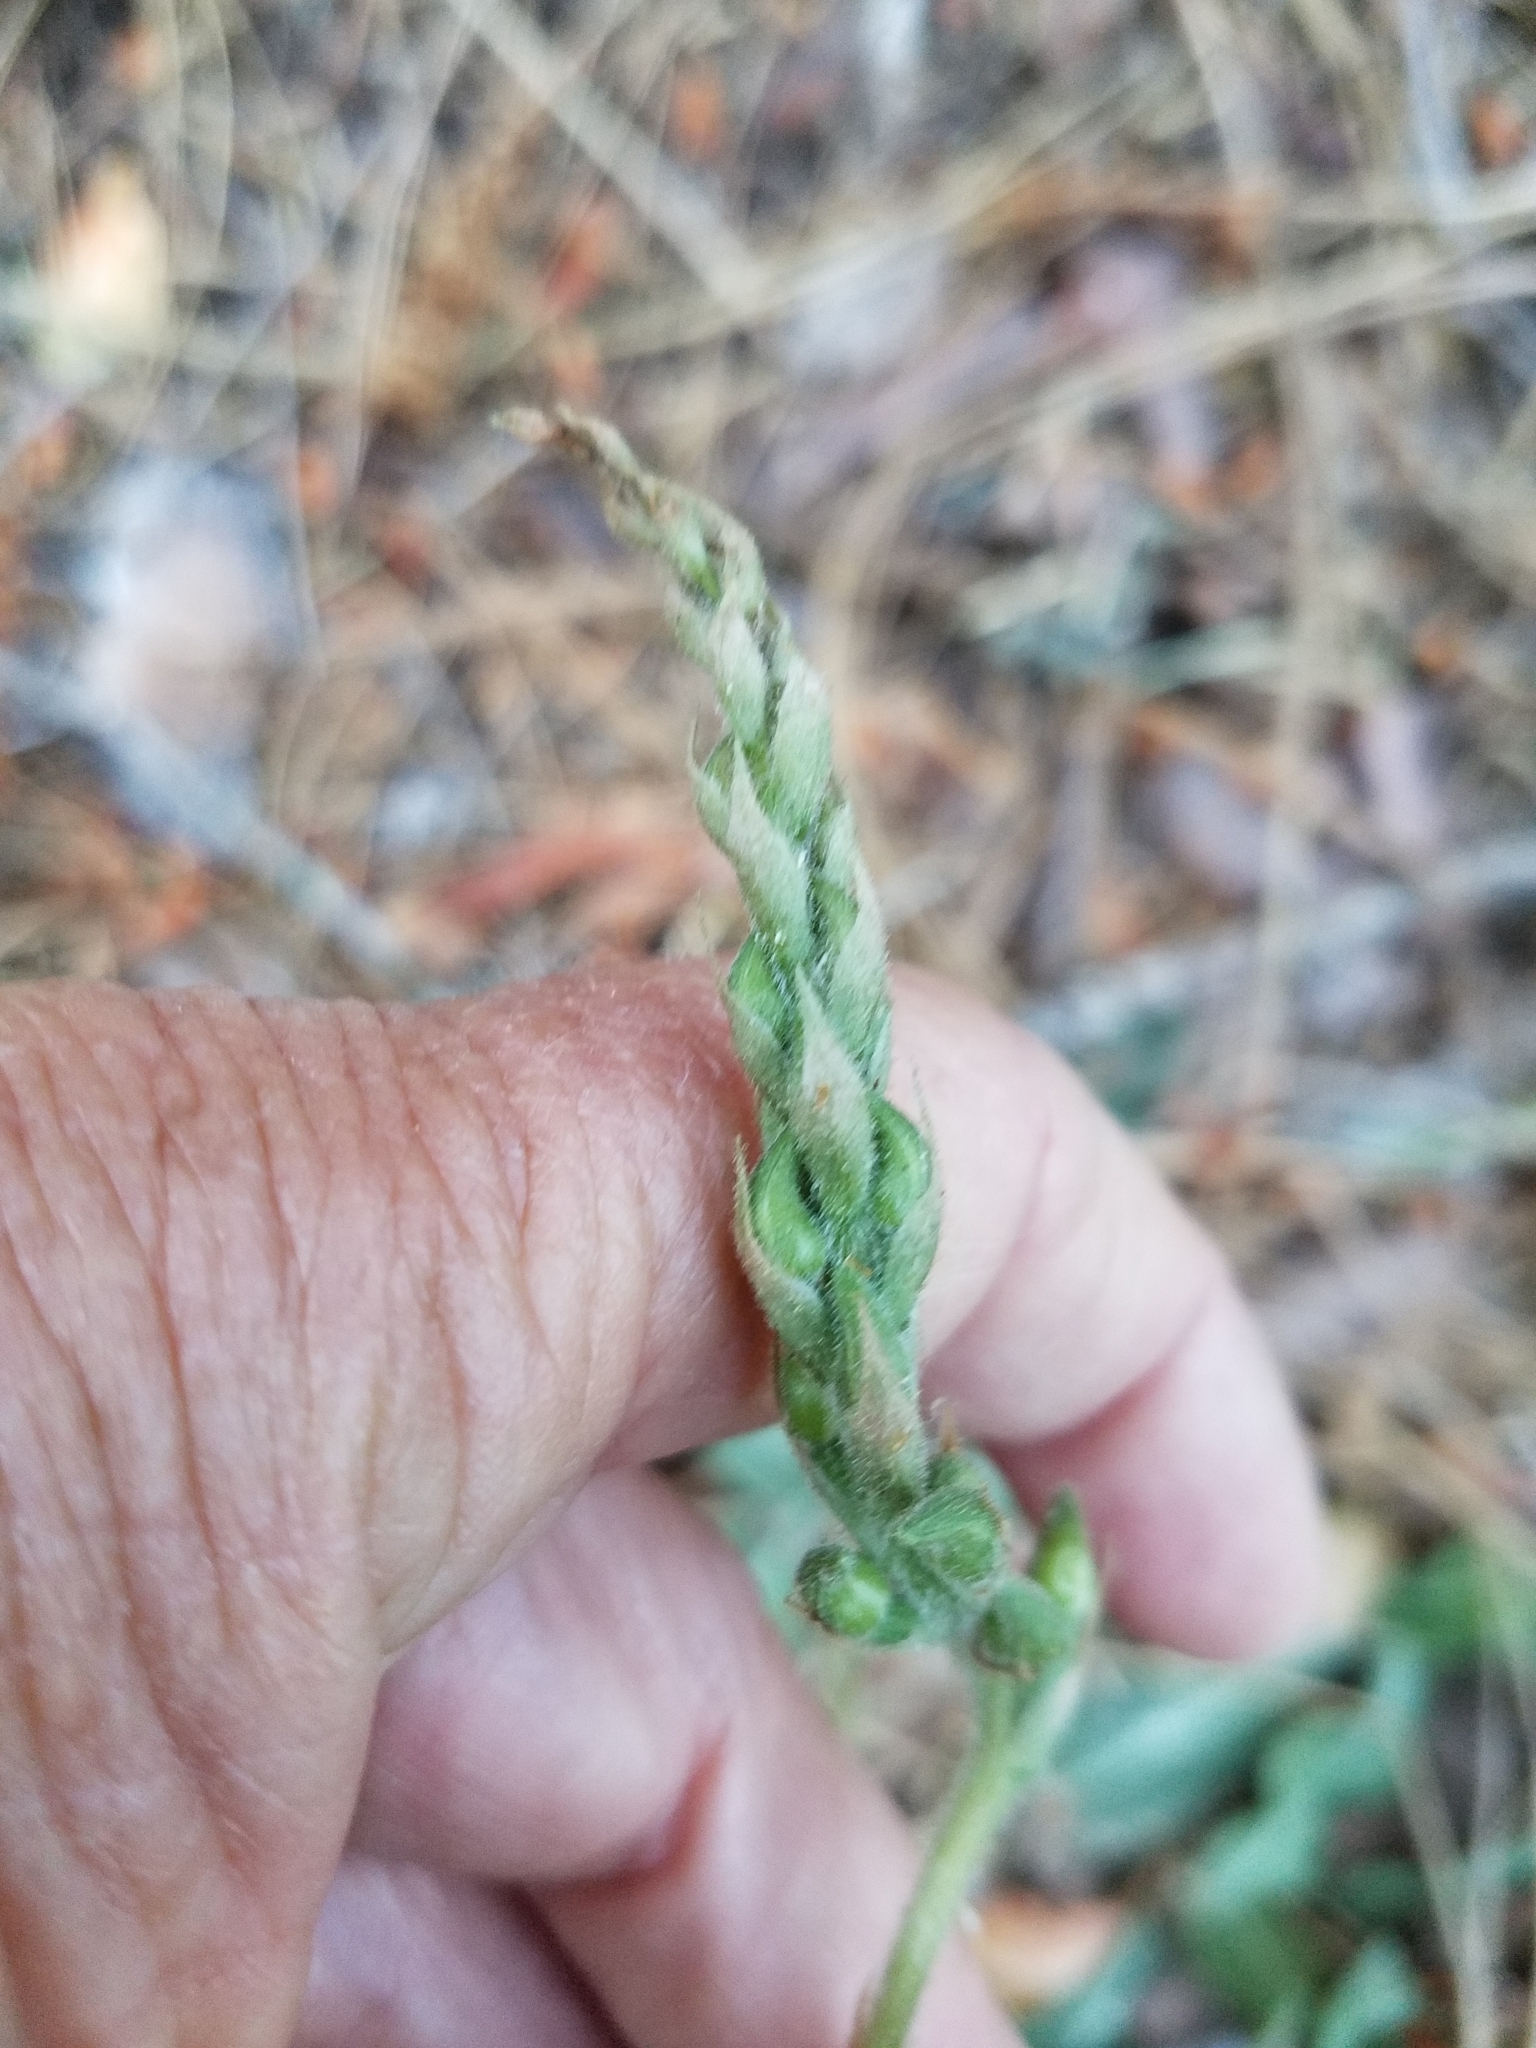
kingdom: Plantae
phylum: Tracheophyta
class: Liliopsida
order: Asparagales
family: Orchidaceae
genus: Goodyera
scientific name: Goodyera oblongifolia
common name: Giant rattlesnake-plantain
